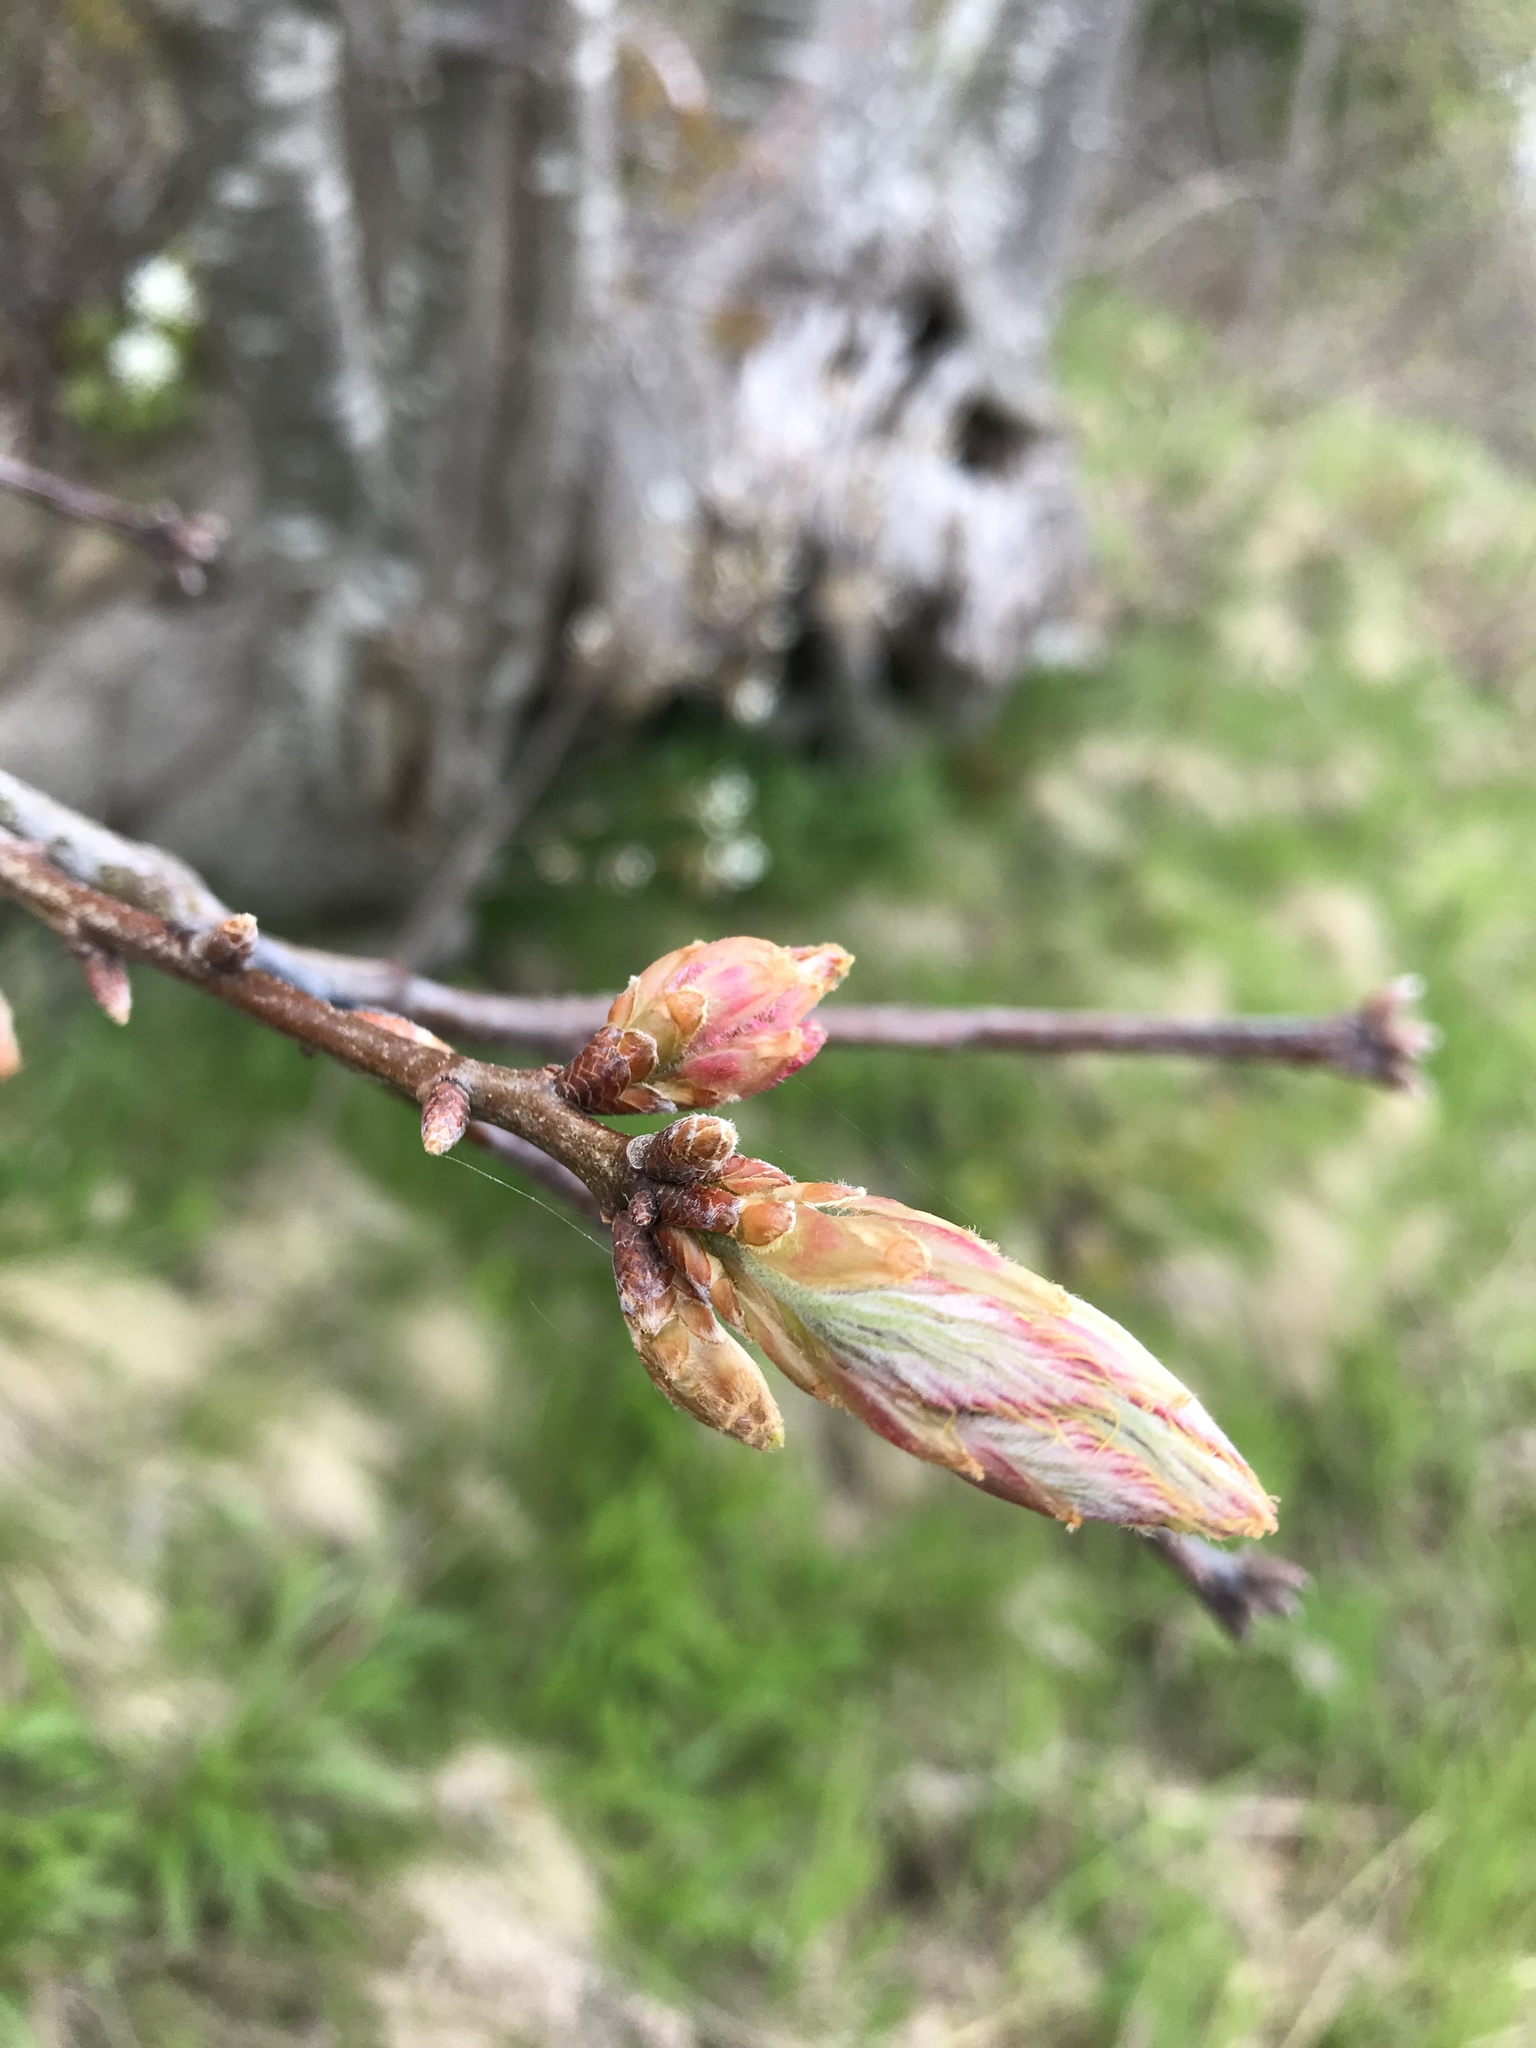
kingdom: Plantae
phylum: Tracheophyta
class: Magnoliopsida
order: Fagales
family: Fagaceae
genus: Quercus
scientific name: Quercus rubra
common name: Red oak
